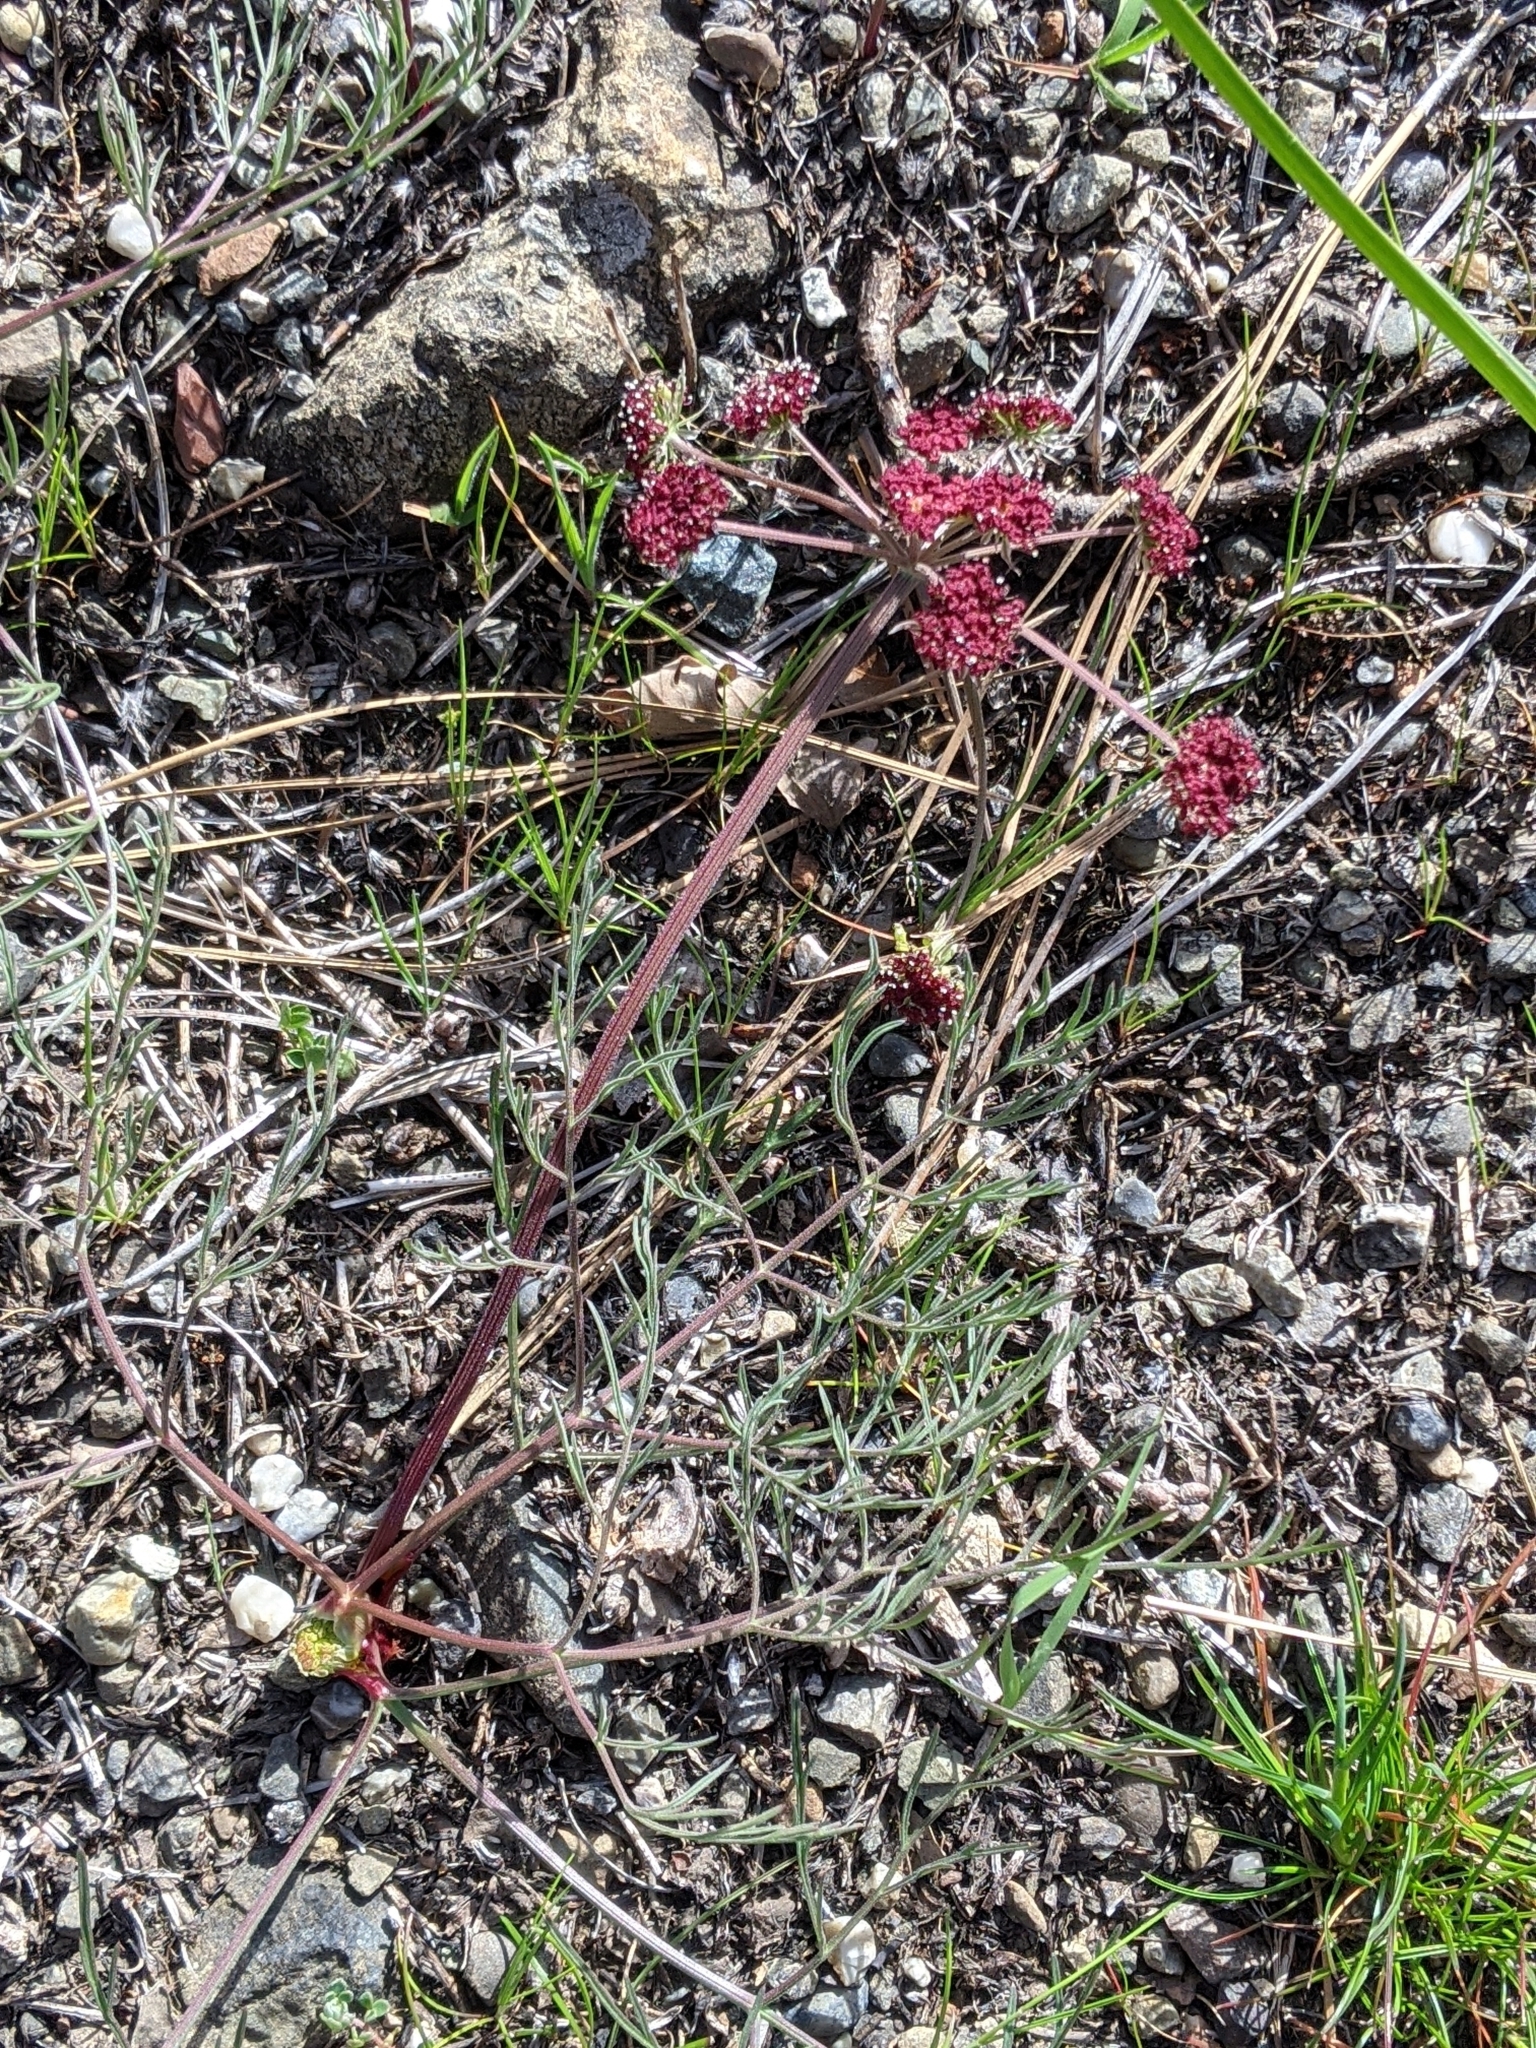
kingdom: Plantae
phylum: Tracheophyta
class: Magnoliopsida
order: Apiales
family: Apiaceae
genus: Lomatium
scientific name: Lomatium hooveri
